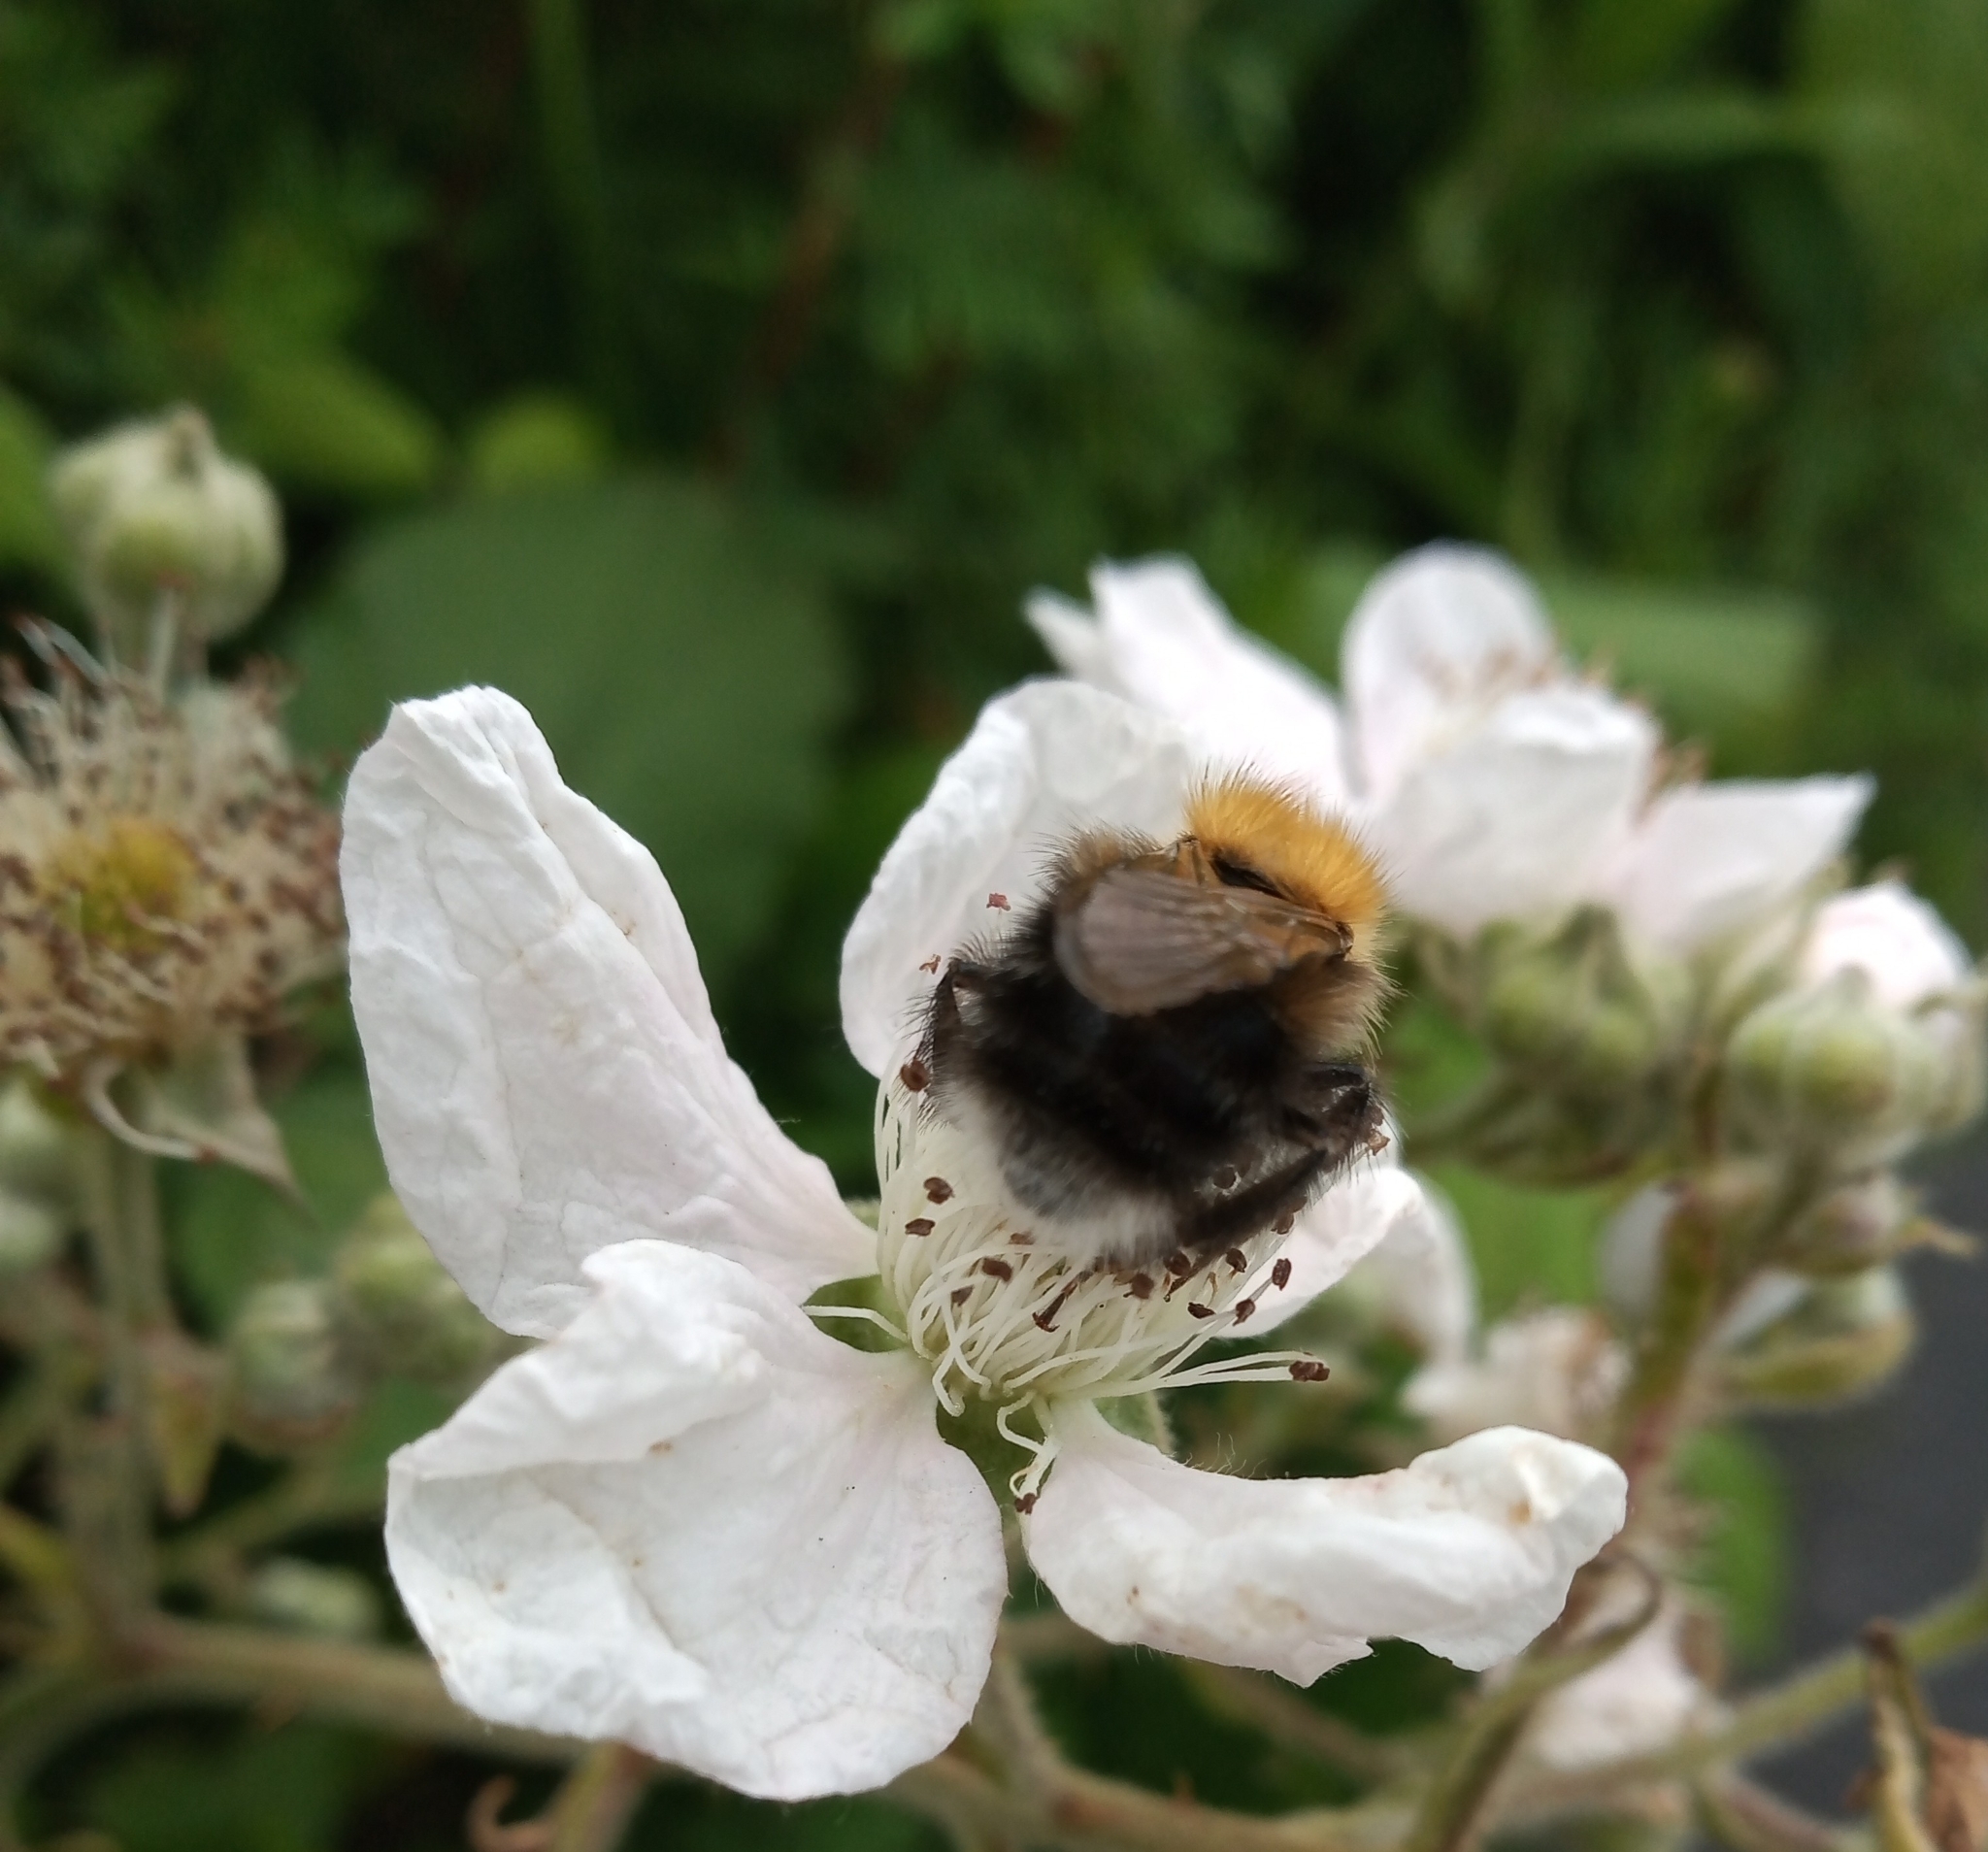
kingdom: Animalia
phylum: Arthropoda
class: Insecta
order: Hymenoptera
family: Apidae
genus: Bombus
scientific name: Bombus hypnorum
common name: New garden bumblebee
